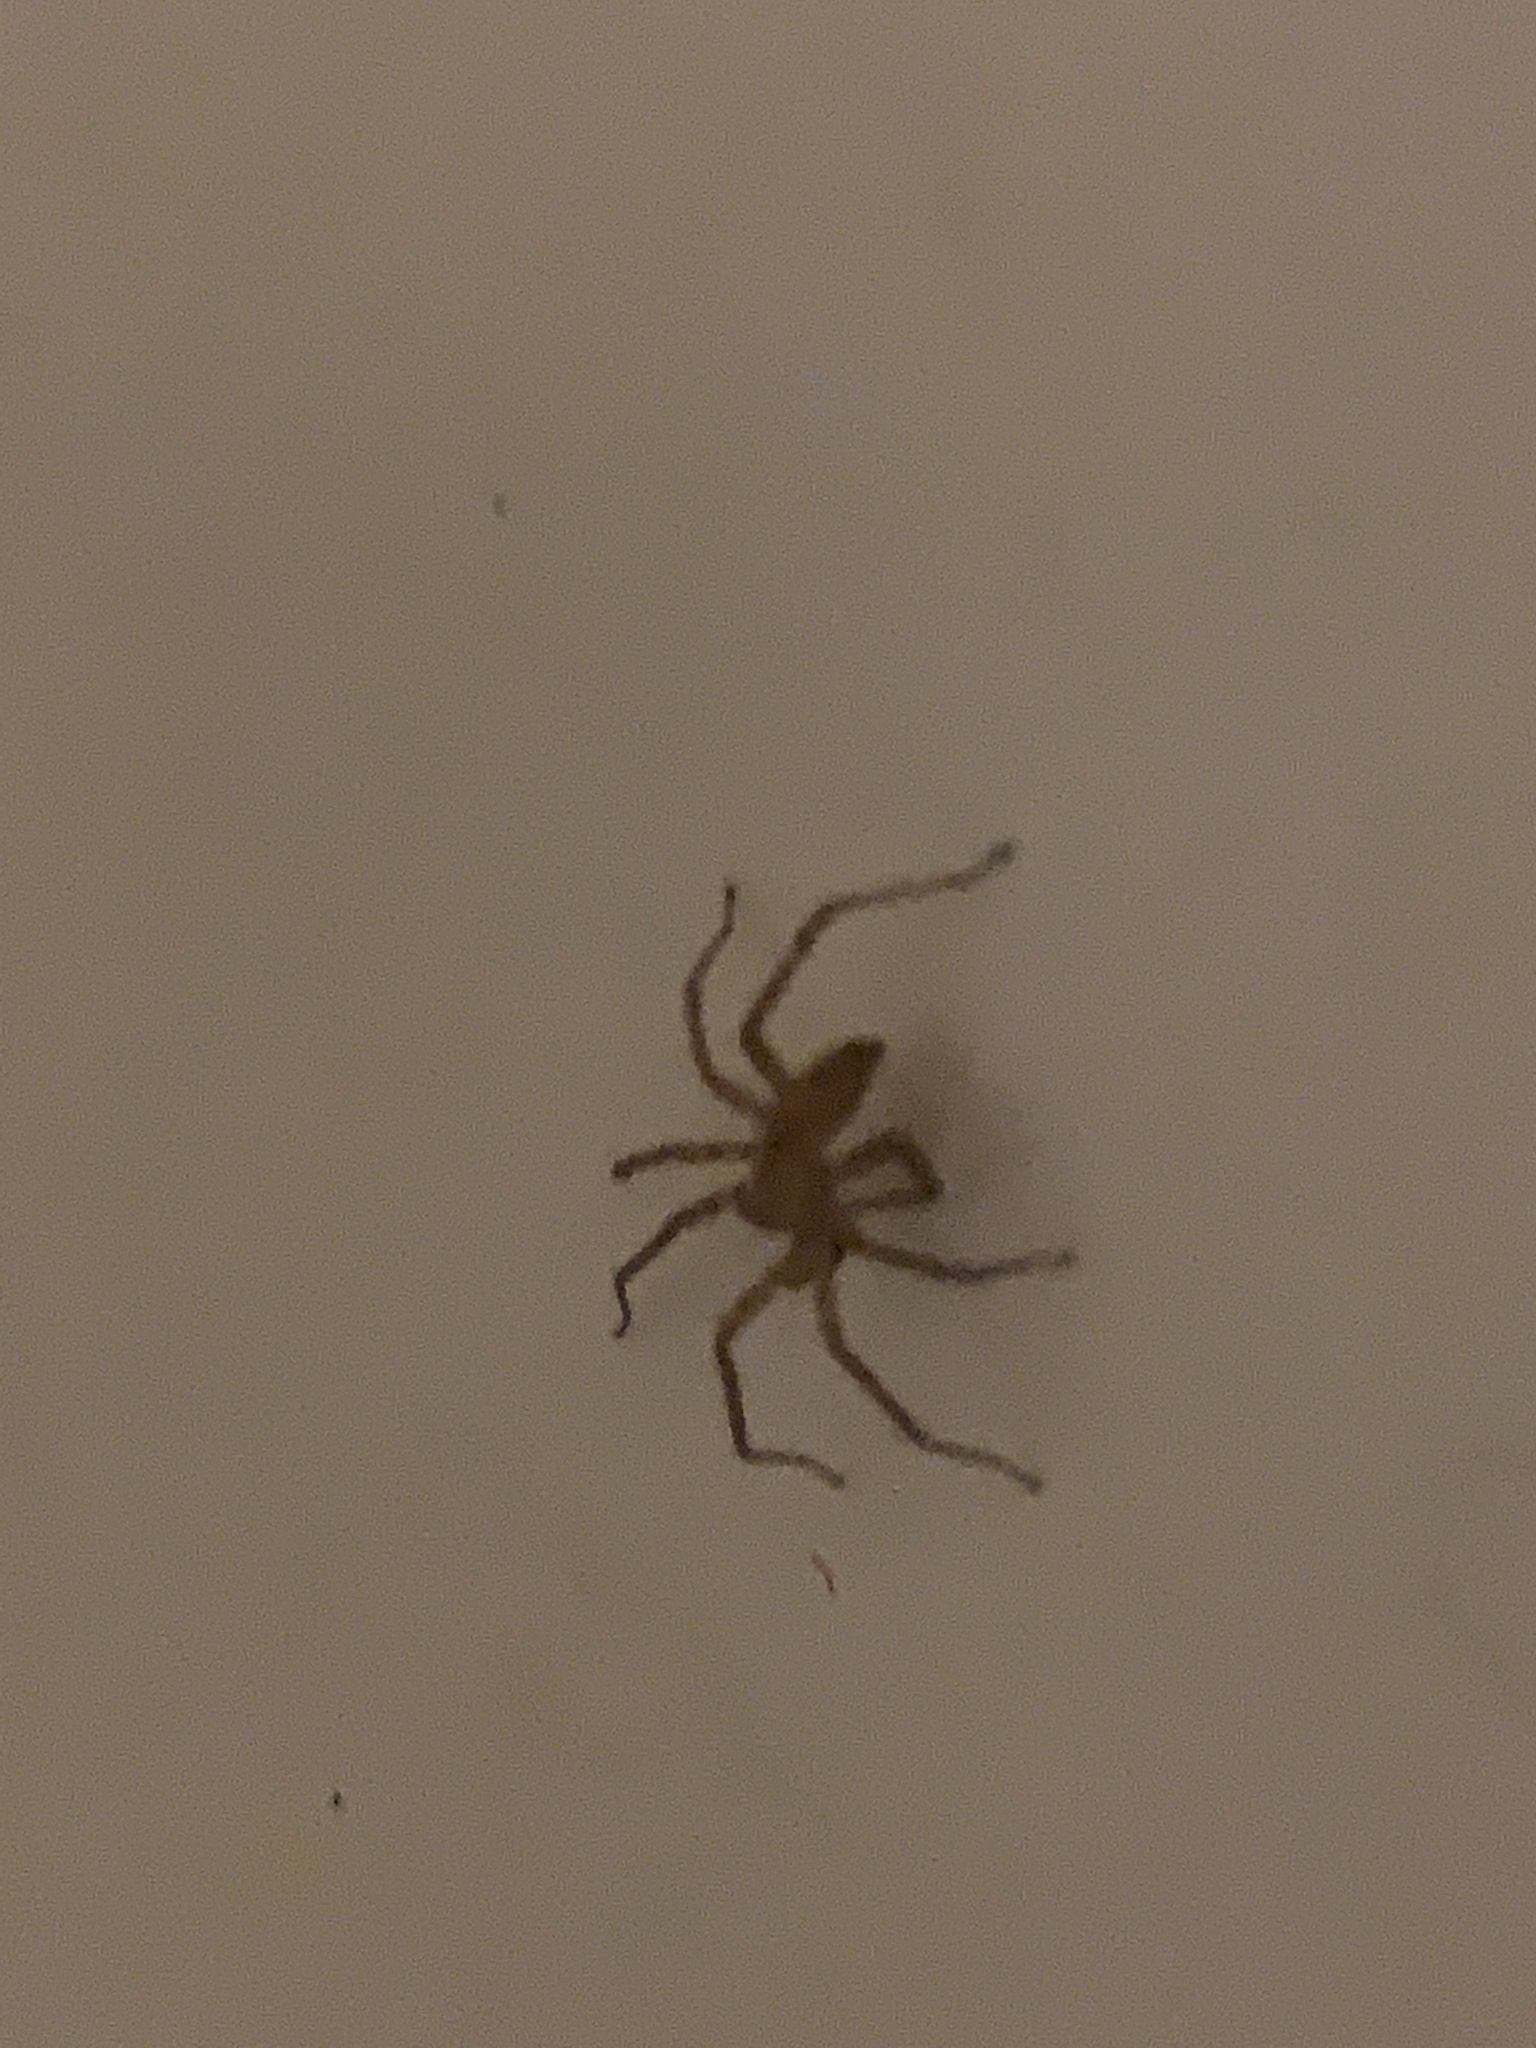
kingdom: Animalia
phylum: Arthropoda
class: Arachnida
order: Araneae
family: Anyphaenidae
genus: Anyphaena
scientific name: Anyphaena
